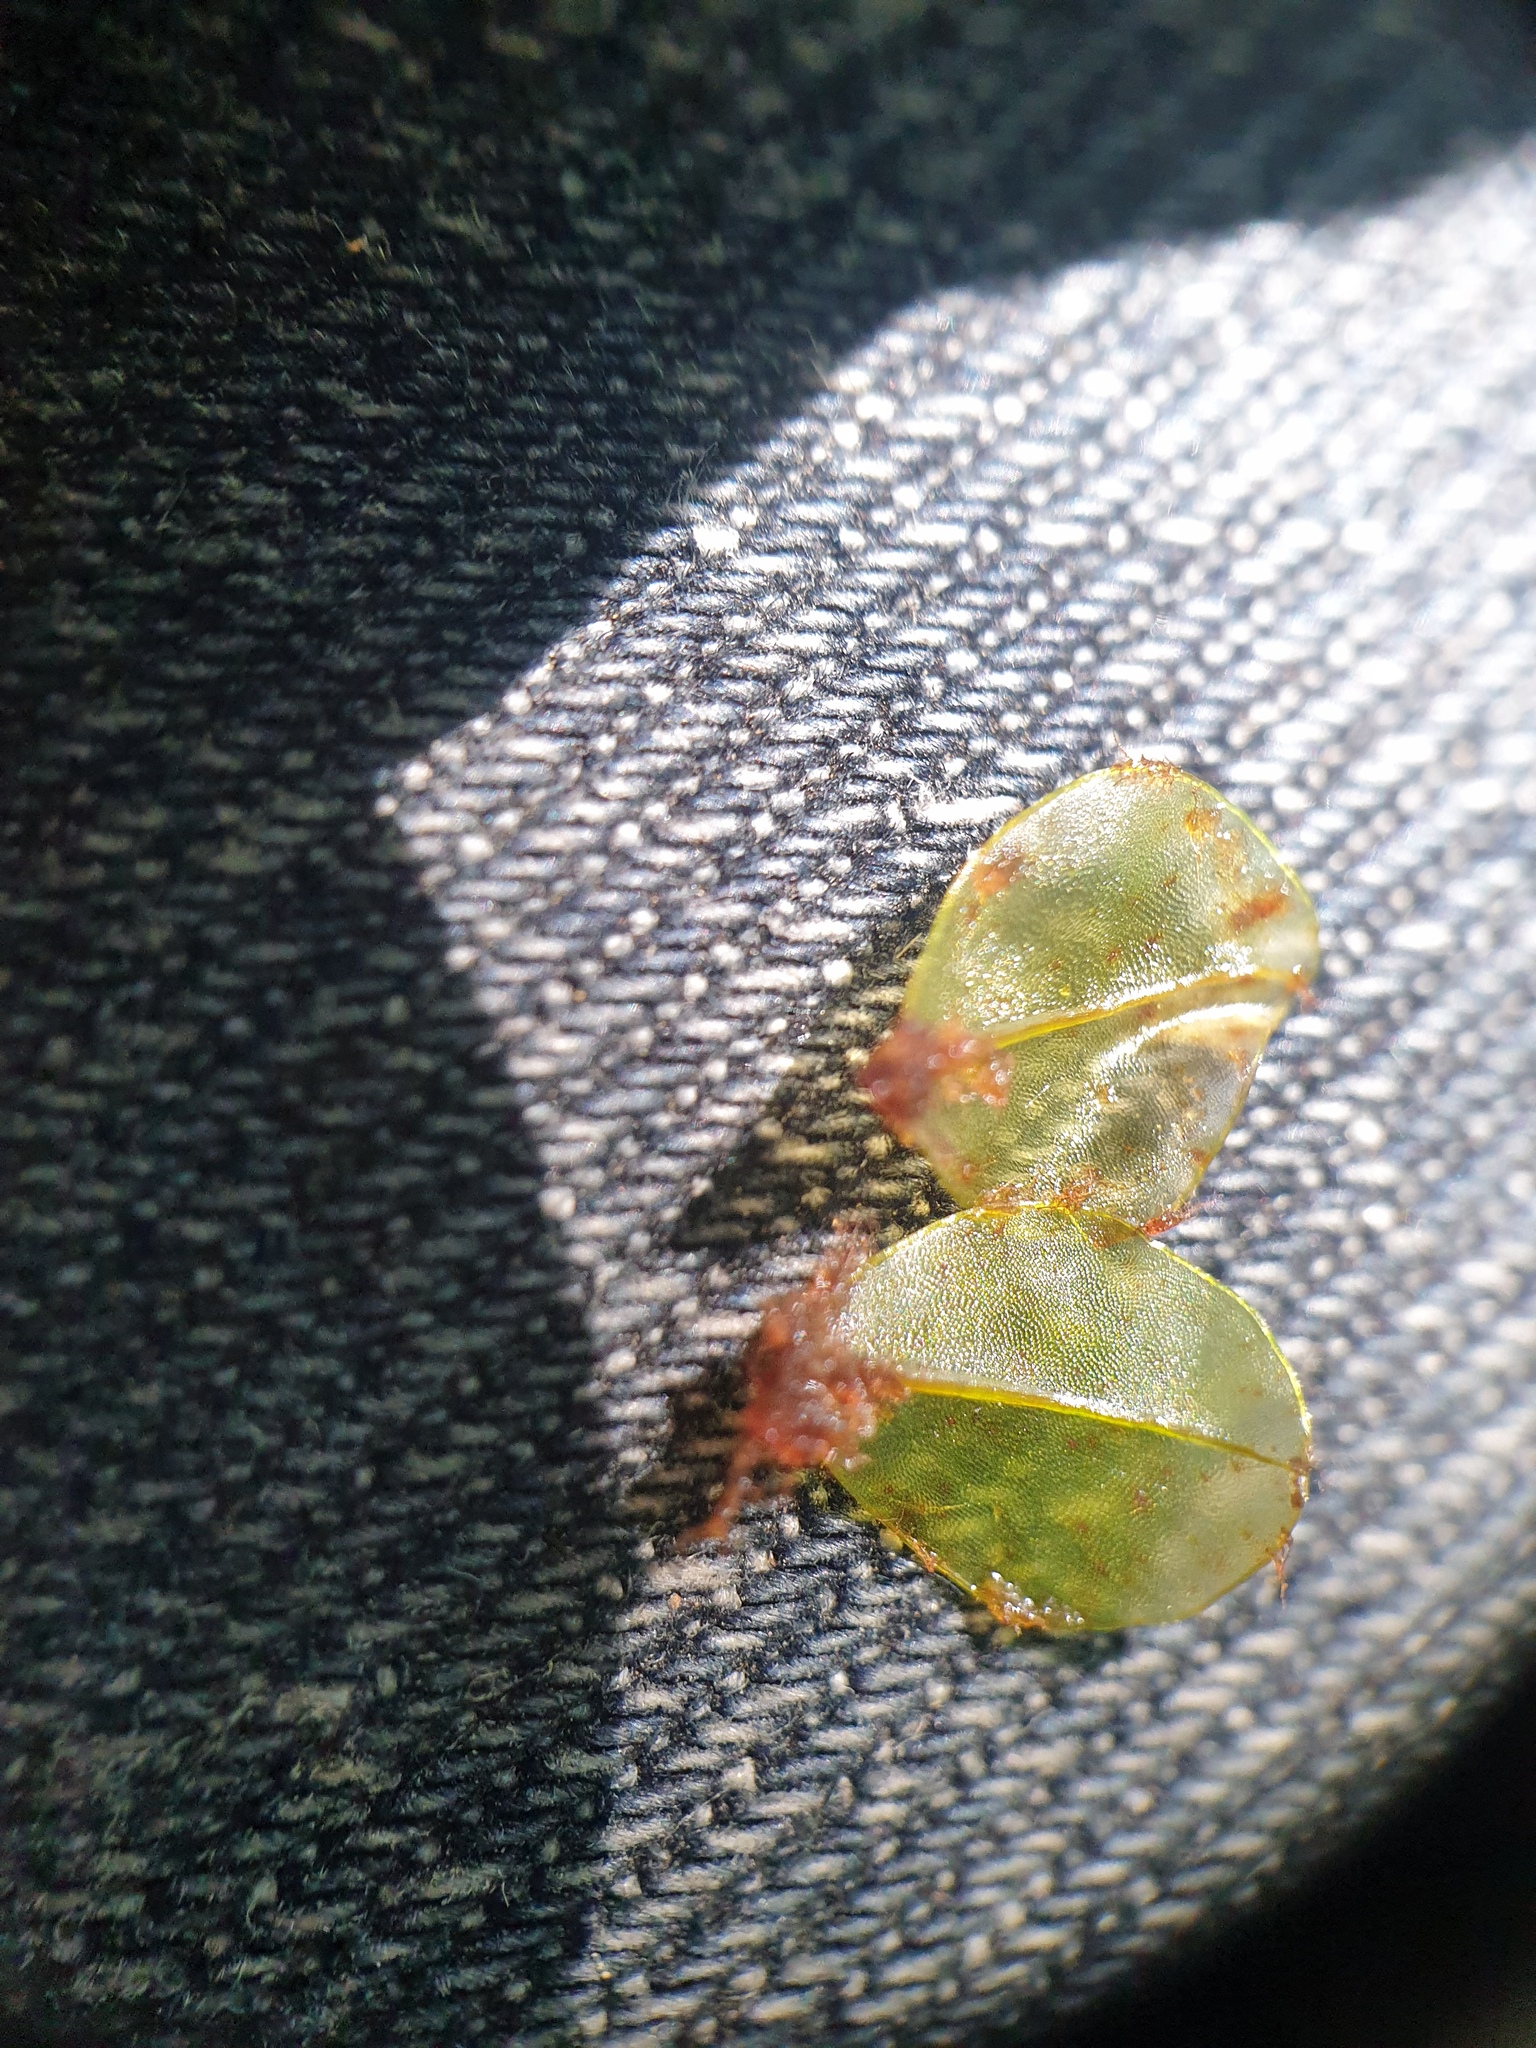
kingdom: Plantae
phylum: Bryophyta
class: Bryopsida
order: Bryales
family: Mniaceae
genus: Rhizomnium
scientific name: Rhizomnium appalachianum
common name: Appalachian leafy moss
